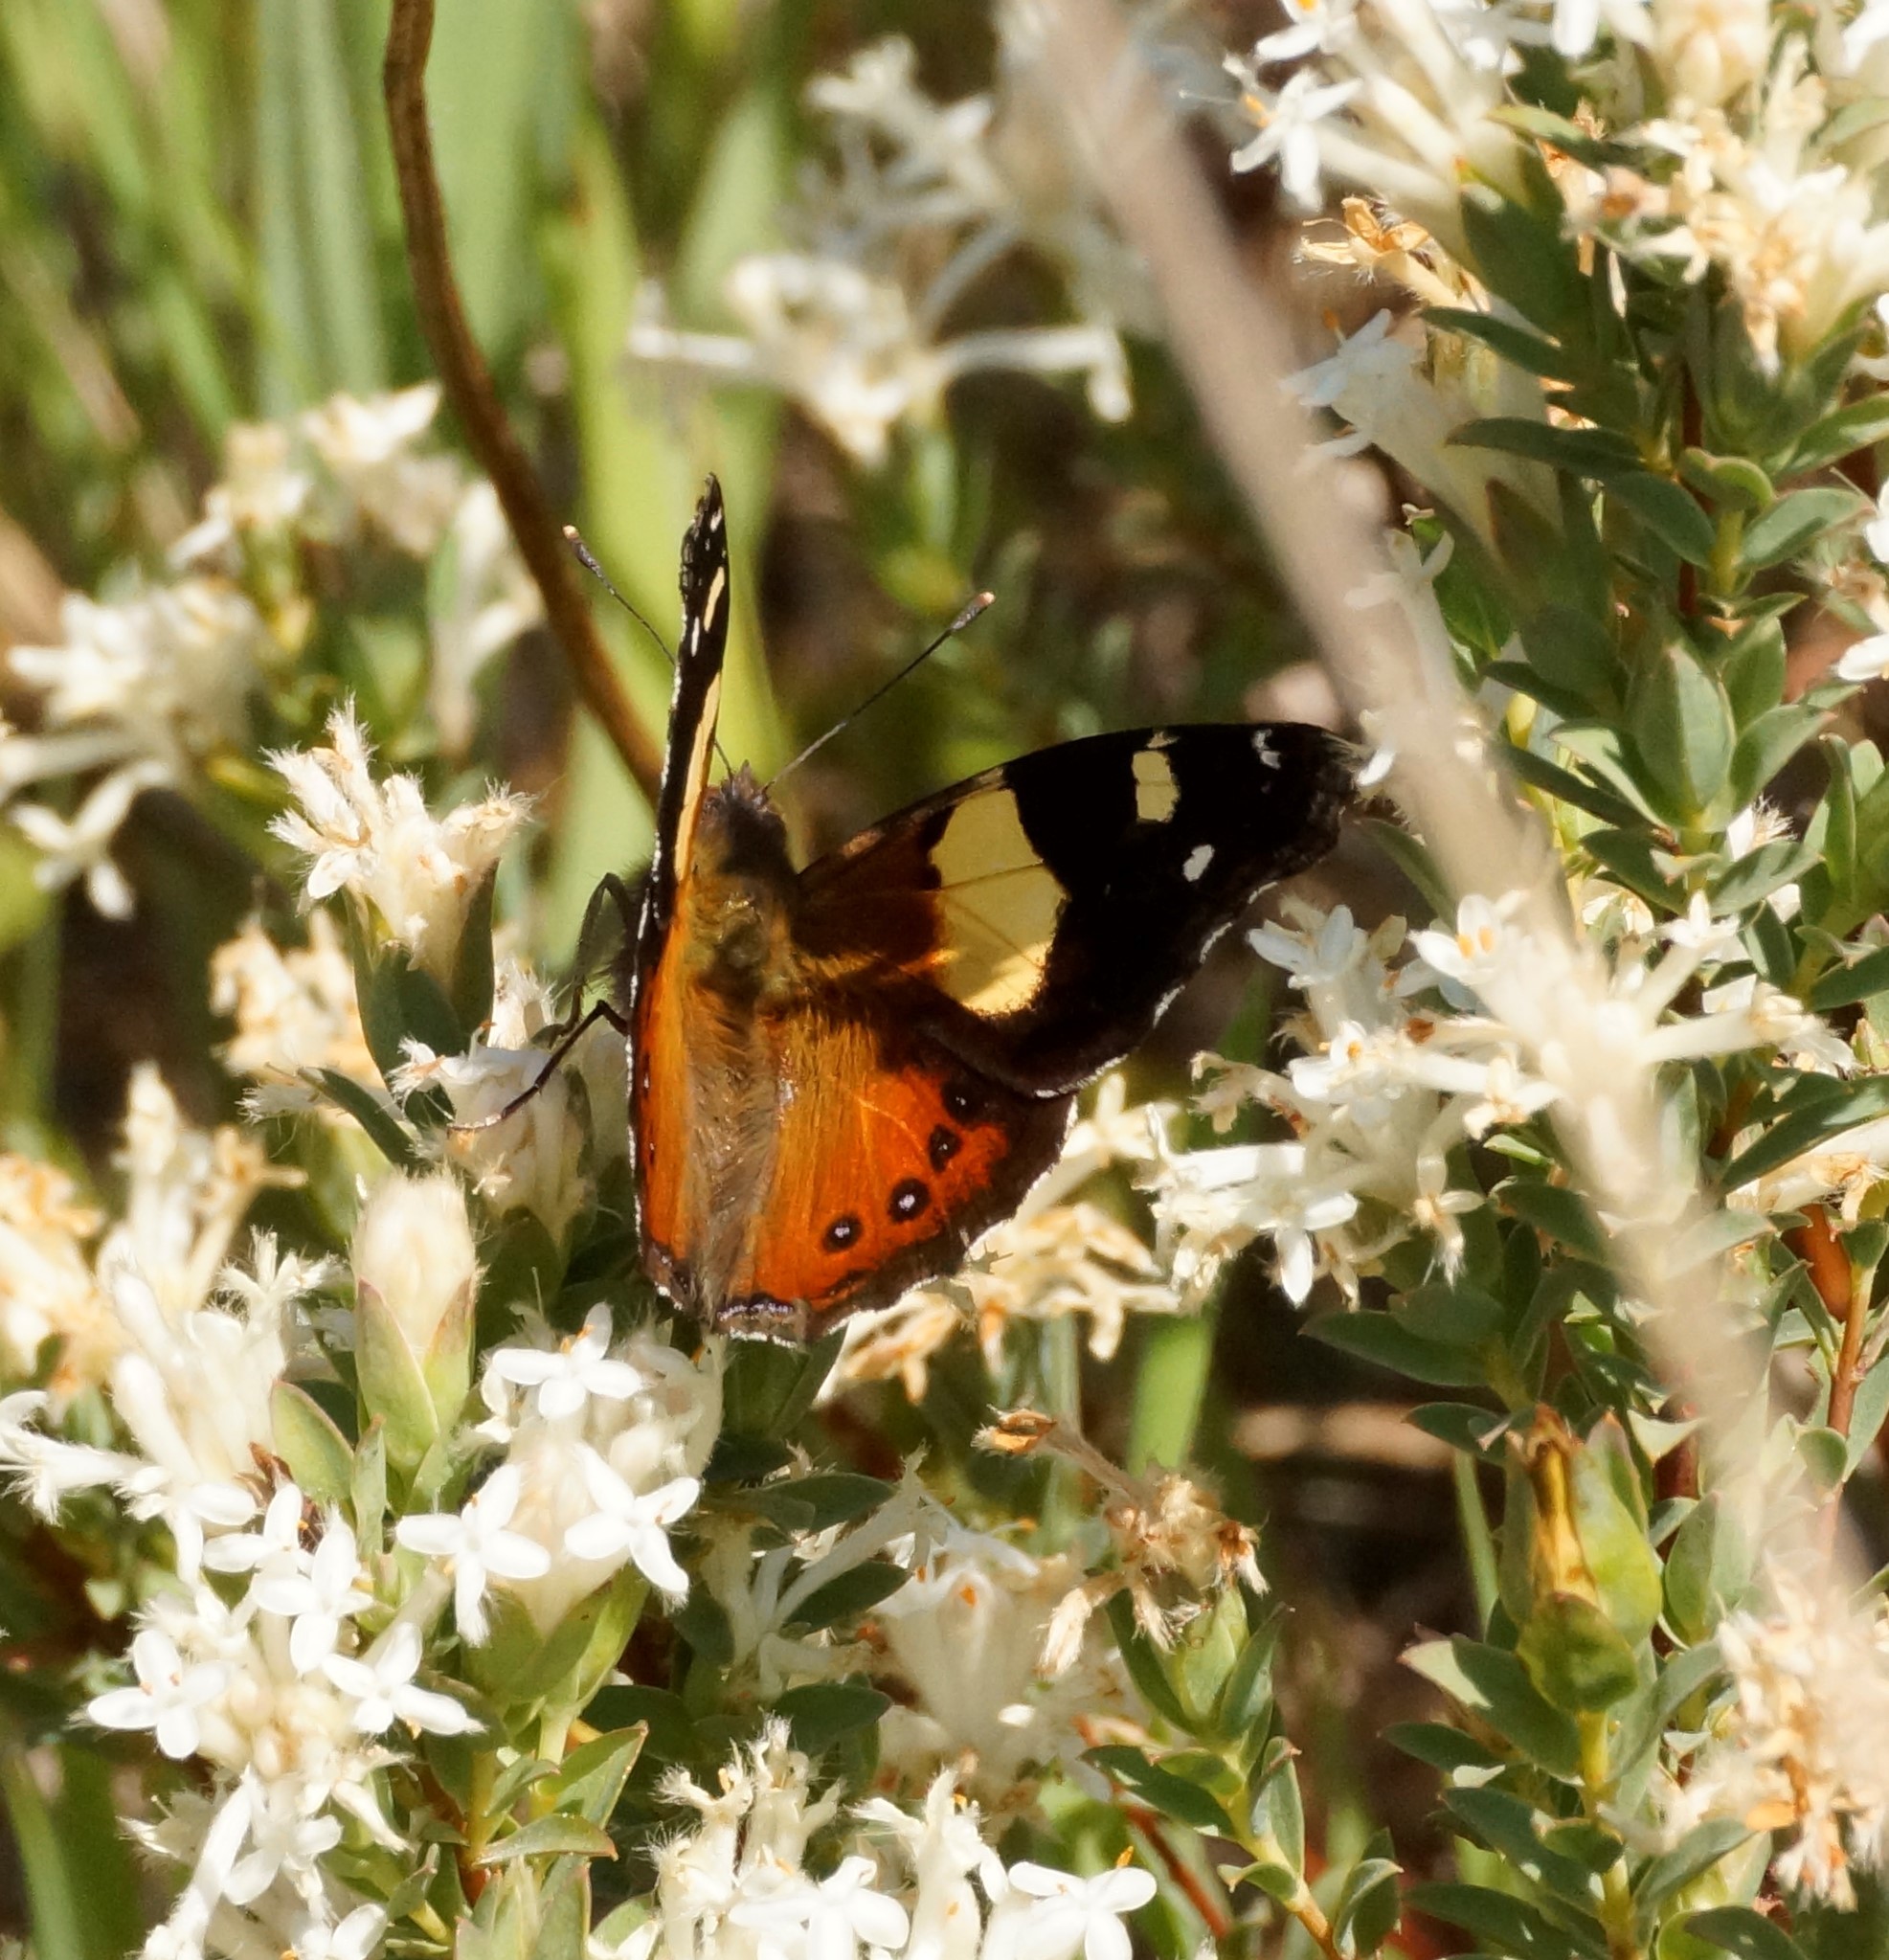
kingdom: Animalia
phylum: Arthropoda
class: Insecta
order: Lepidoptera
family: Nymphalidae
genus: Vanessa
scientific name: Vanessa itea
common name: Yellow admiral
